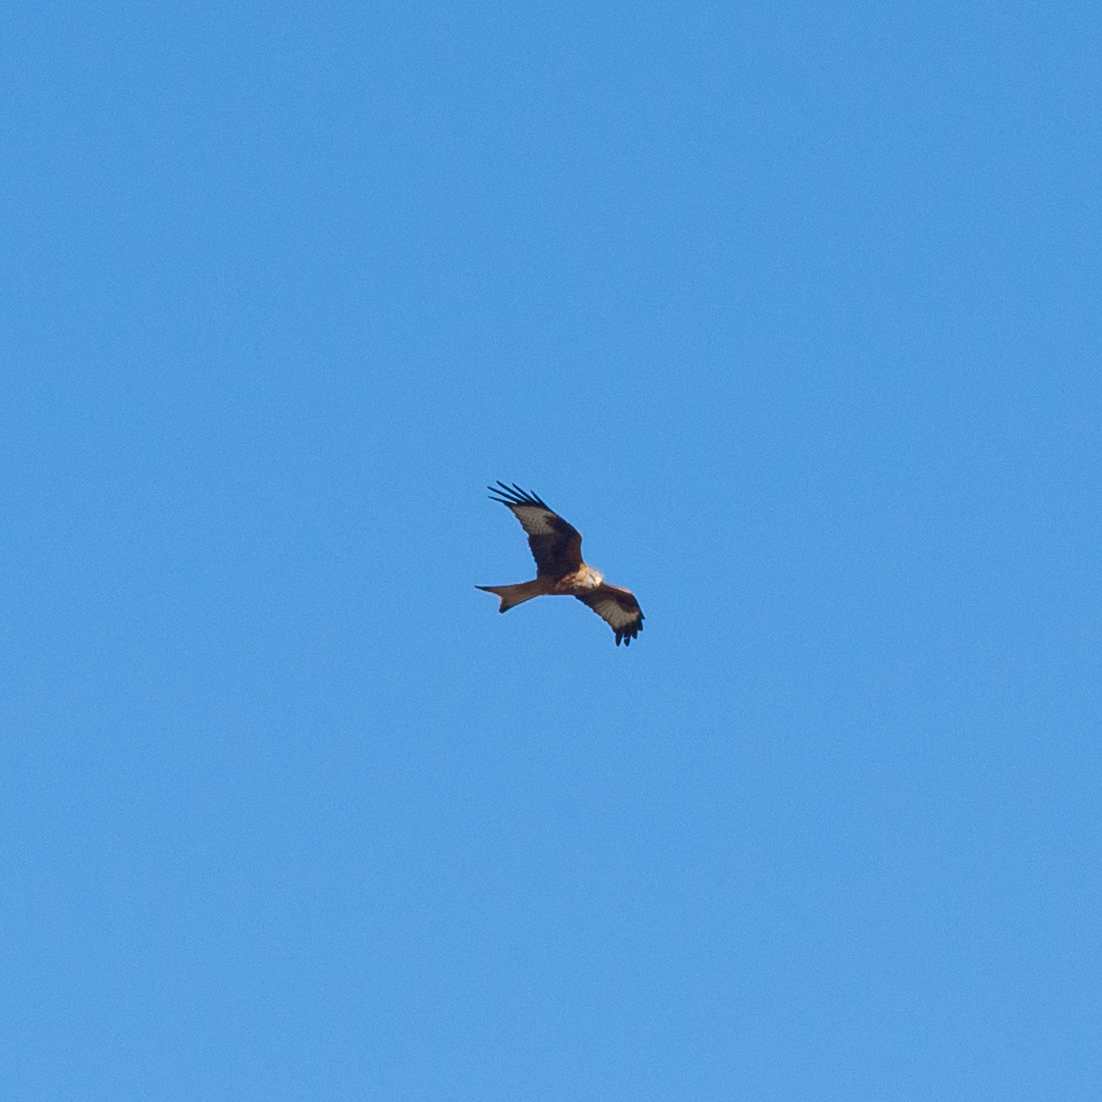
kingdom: Animalia
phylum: Chordata
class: Aves
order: Accipitriformes
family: Accipitridae
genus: Milvus
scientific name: Milvus milvus
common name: Red kite
